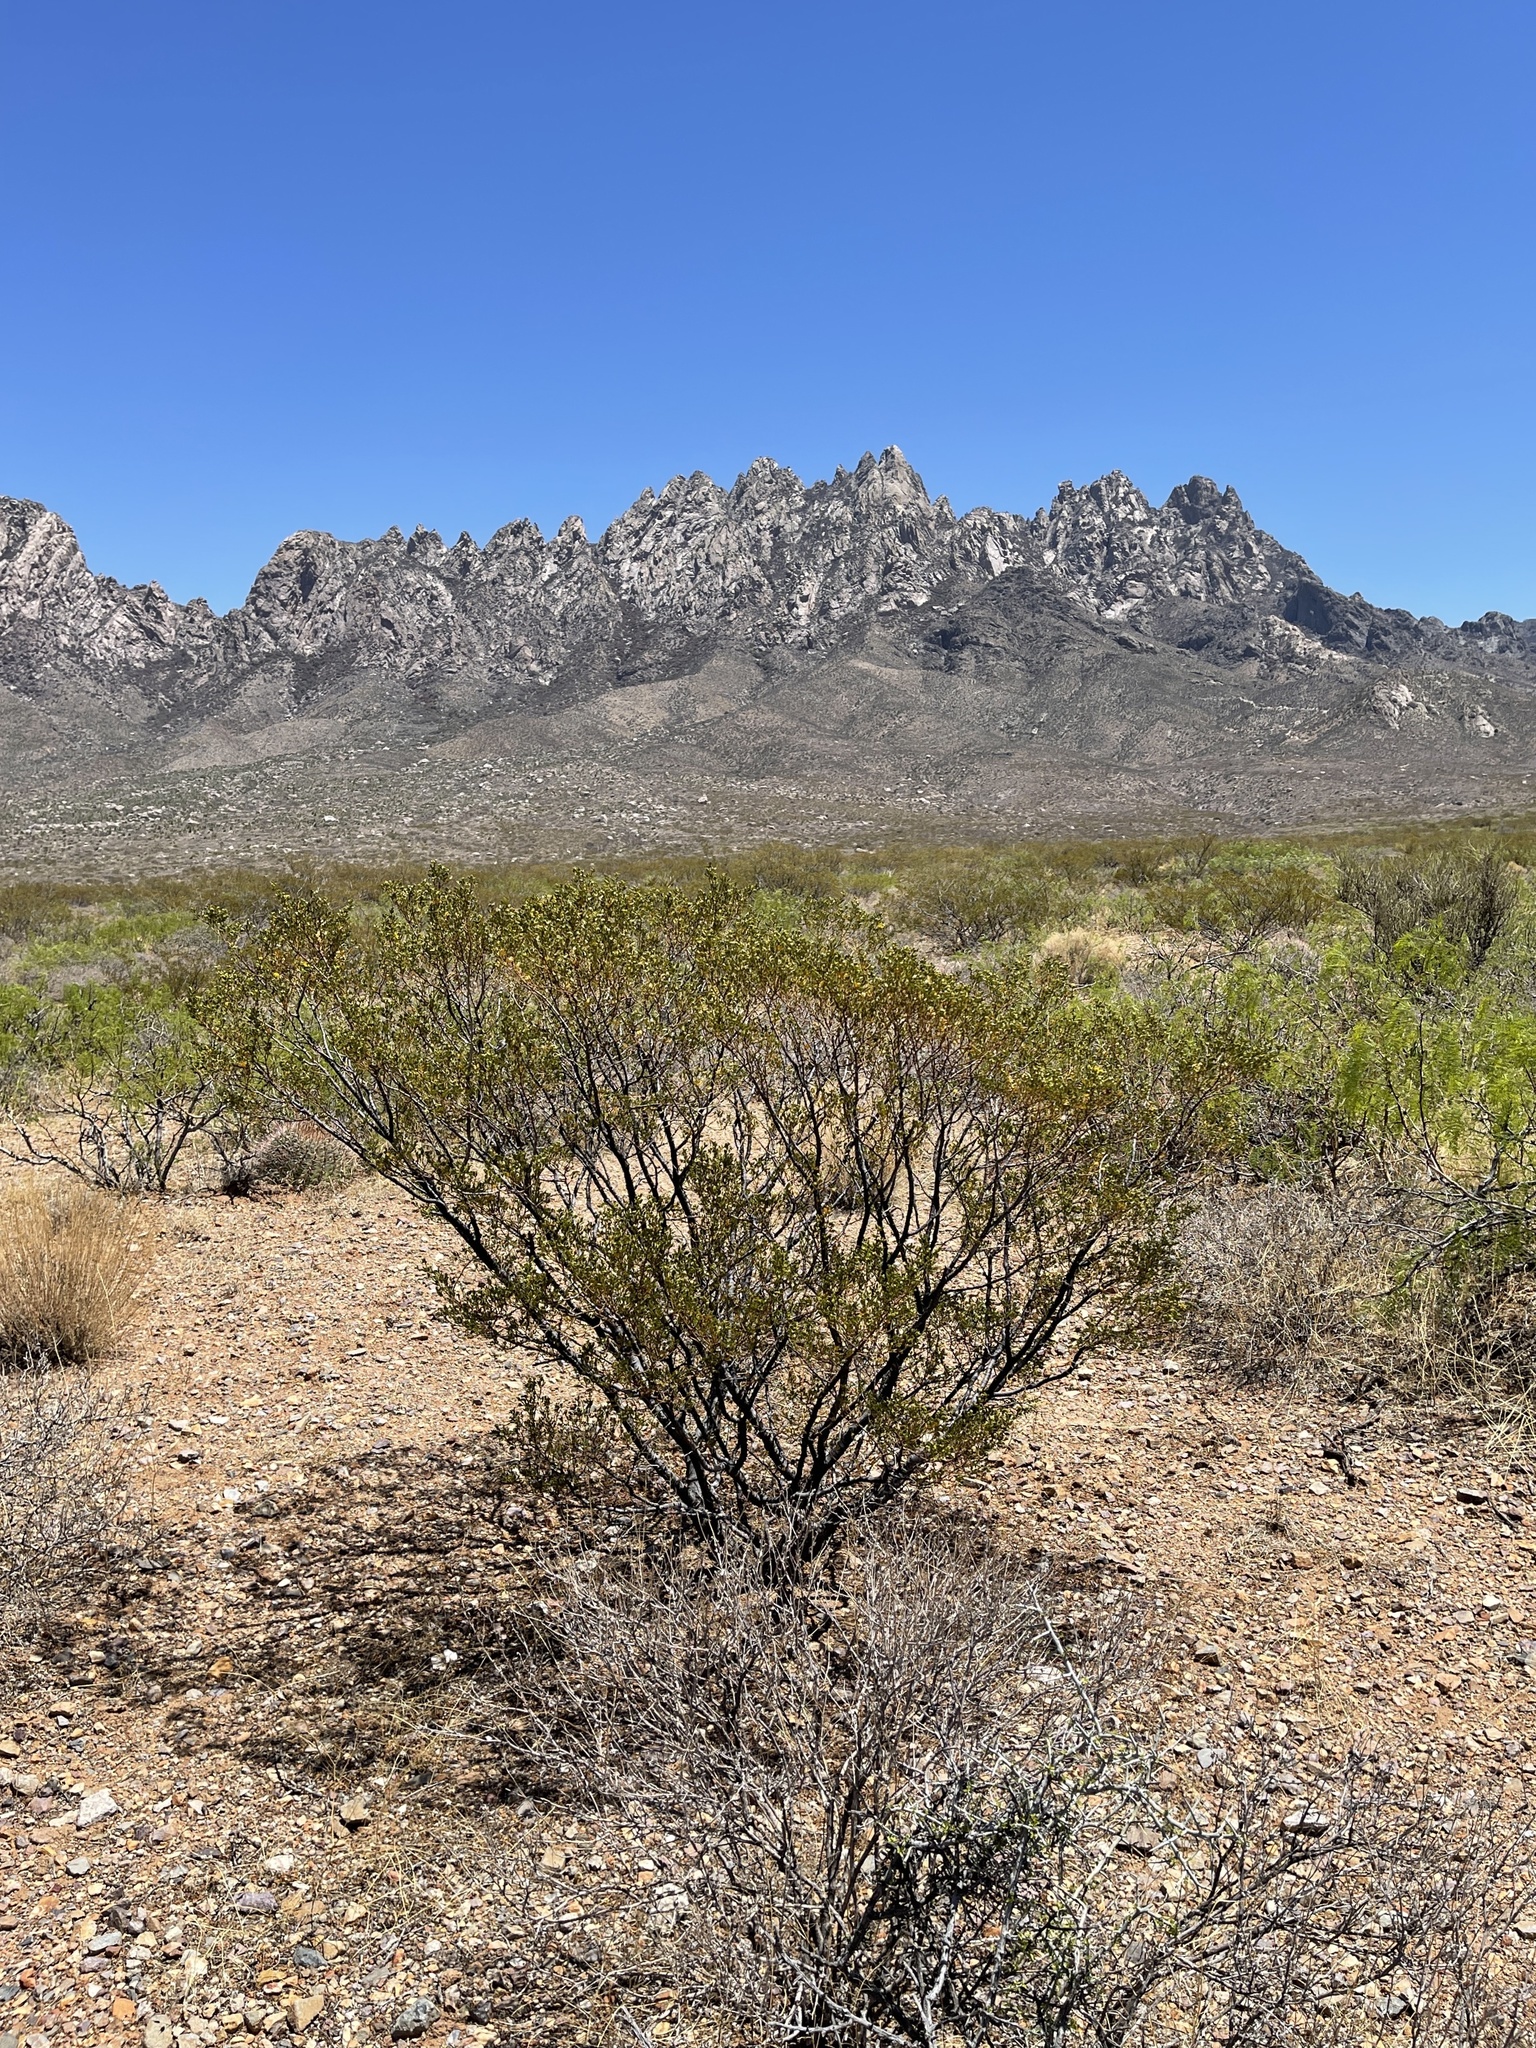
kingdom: Plantae
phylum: Tracheophyta
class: Magnoliopsida
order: Zygophyllales
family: Zygophyllaceae
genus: Larrea
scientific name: Larrea tridentata
